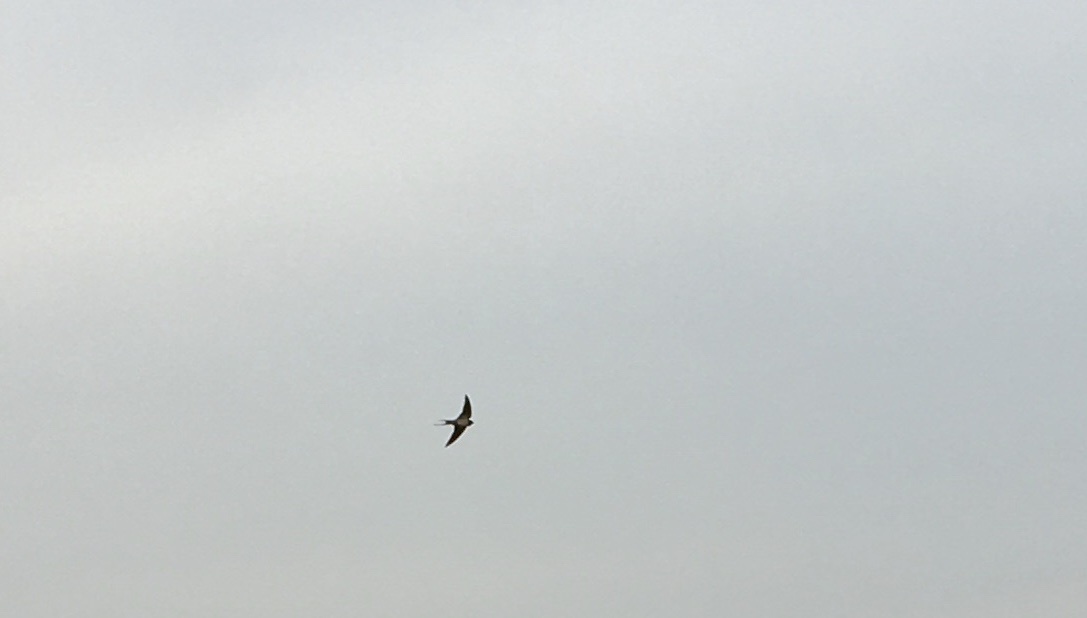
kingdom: Animalia
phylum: Chordata
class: Aves
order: Passeriformes
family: Hirundinidae
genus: Hirundo
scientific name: Hirundo rustica
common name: Barn swallow
